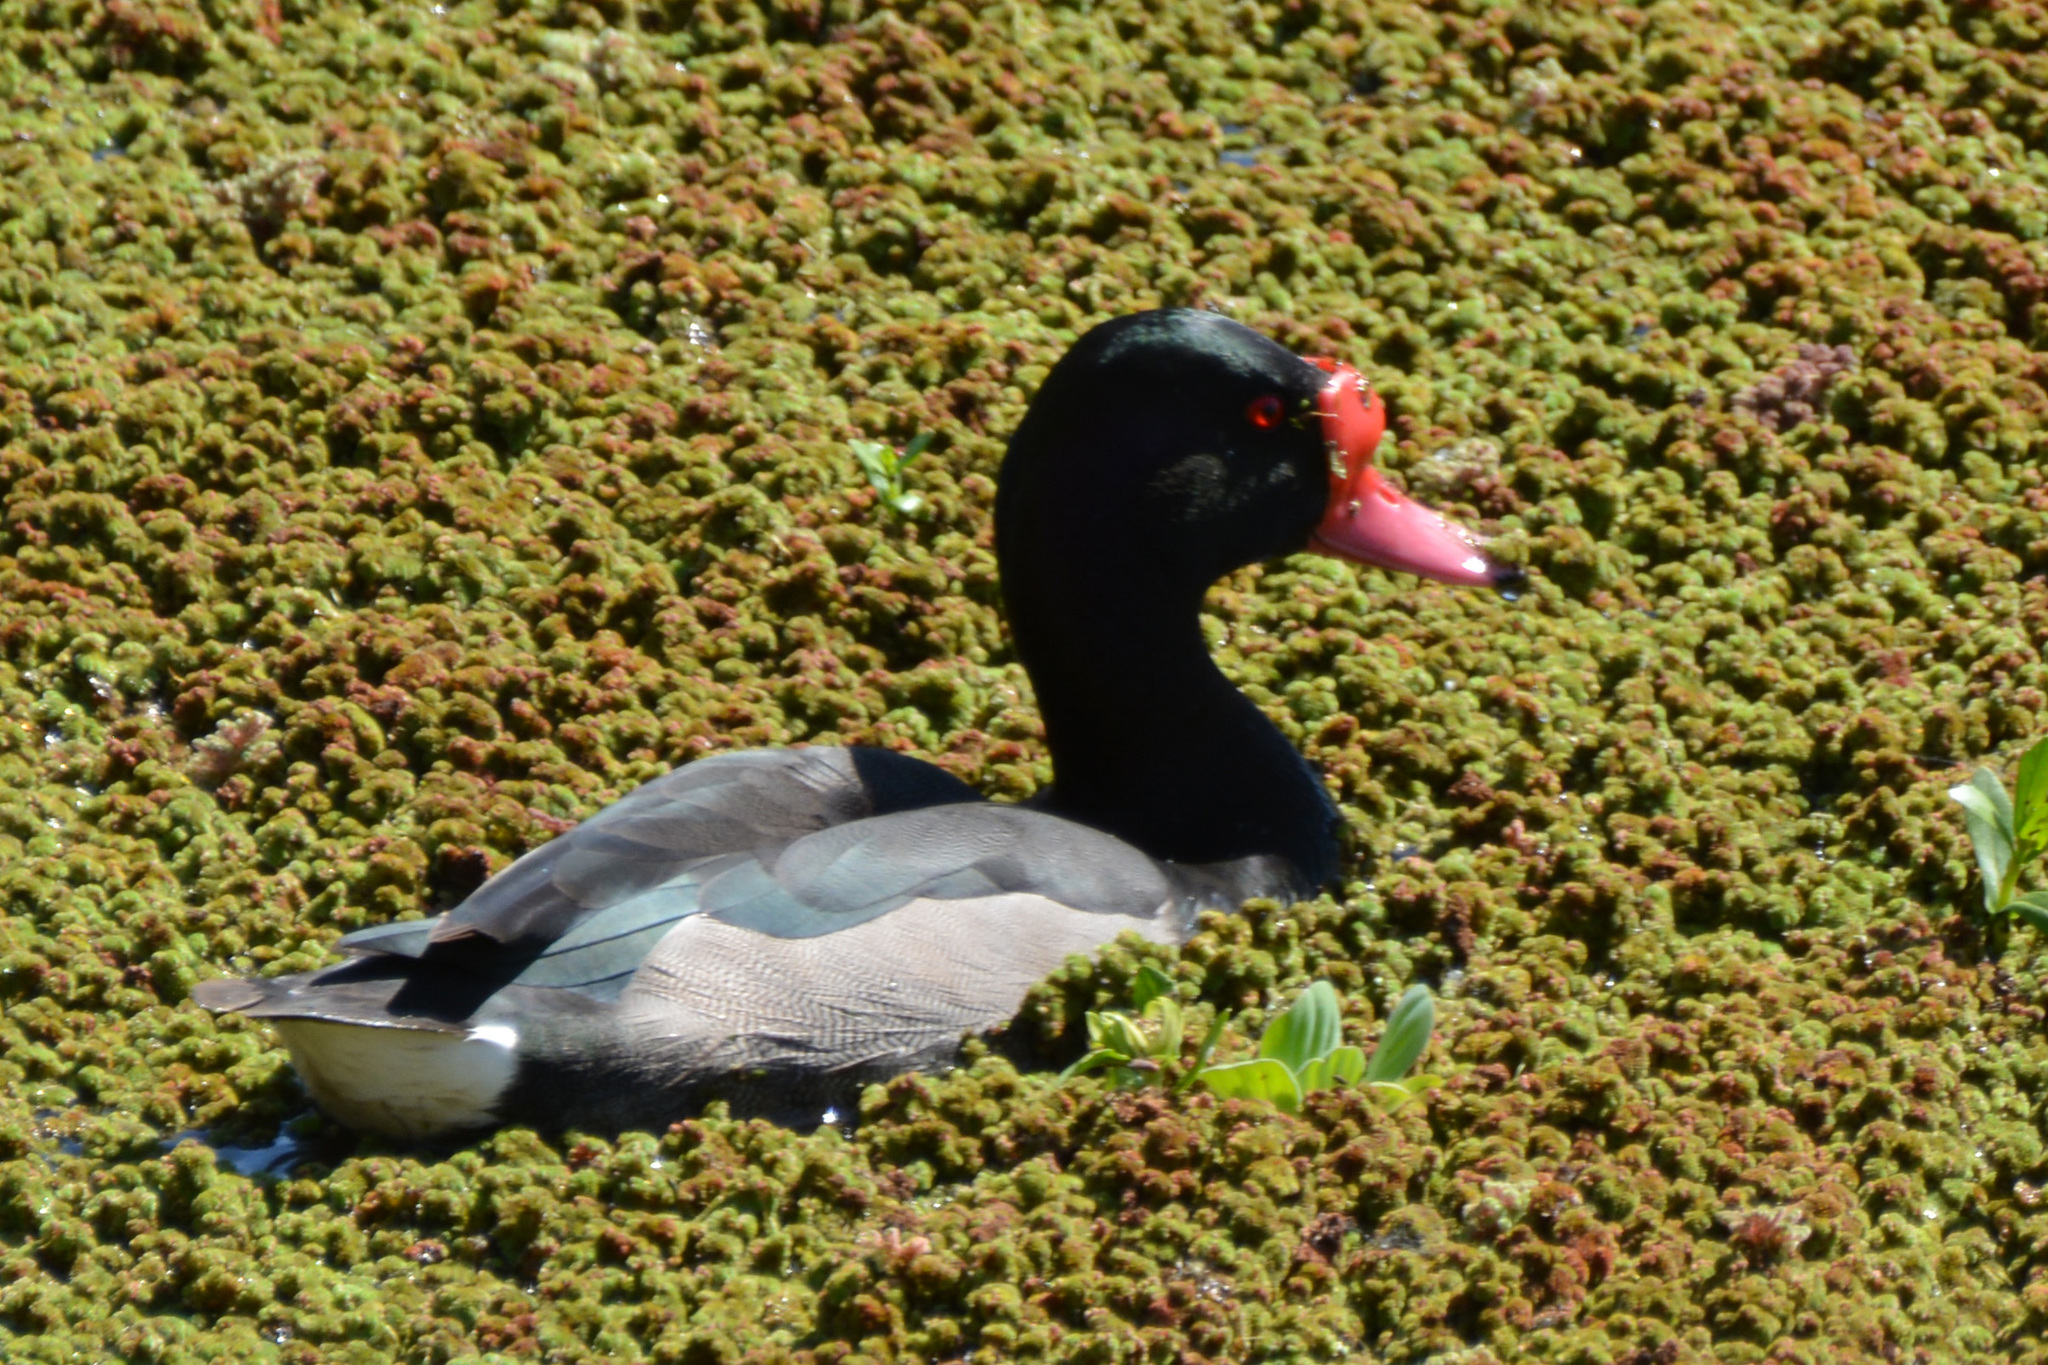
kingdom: Plantae
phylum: Tracheophyta
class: Liliopsida
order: Alismatales
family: Araceae
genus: Pistia
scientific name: Pistia stratiotes
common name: Water lettuce
